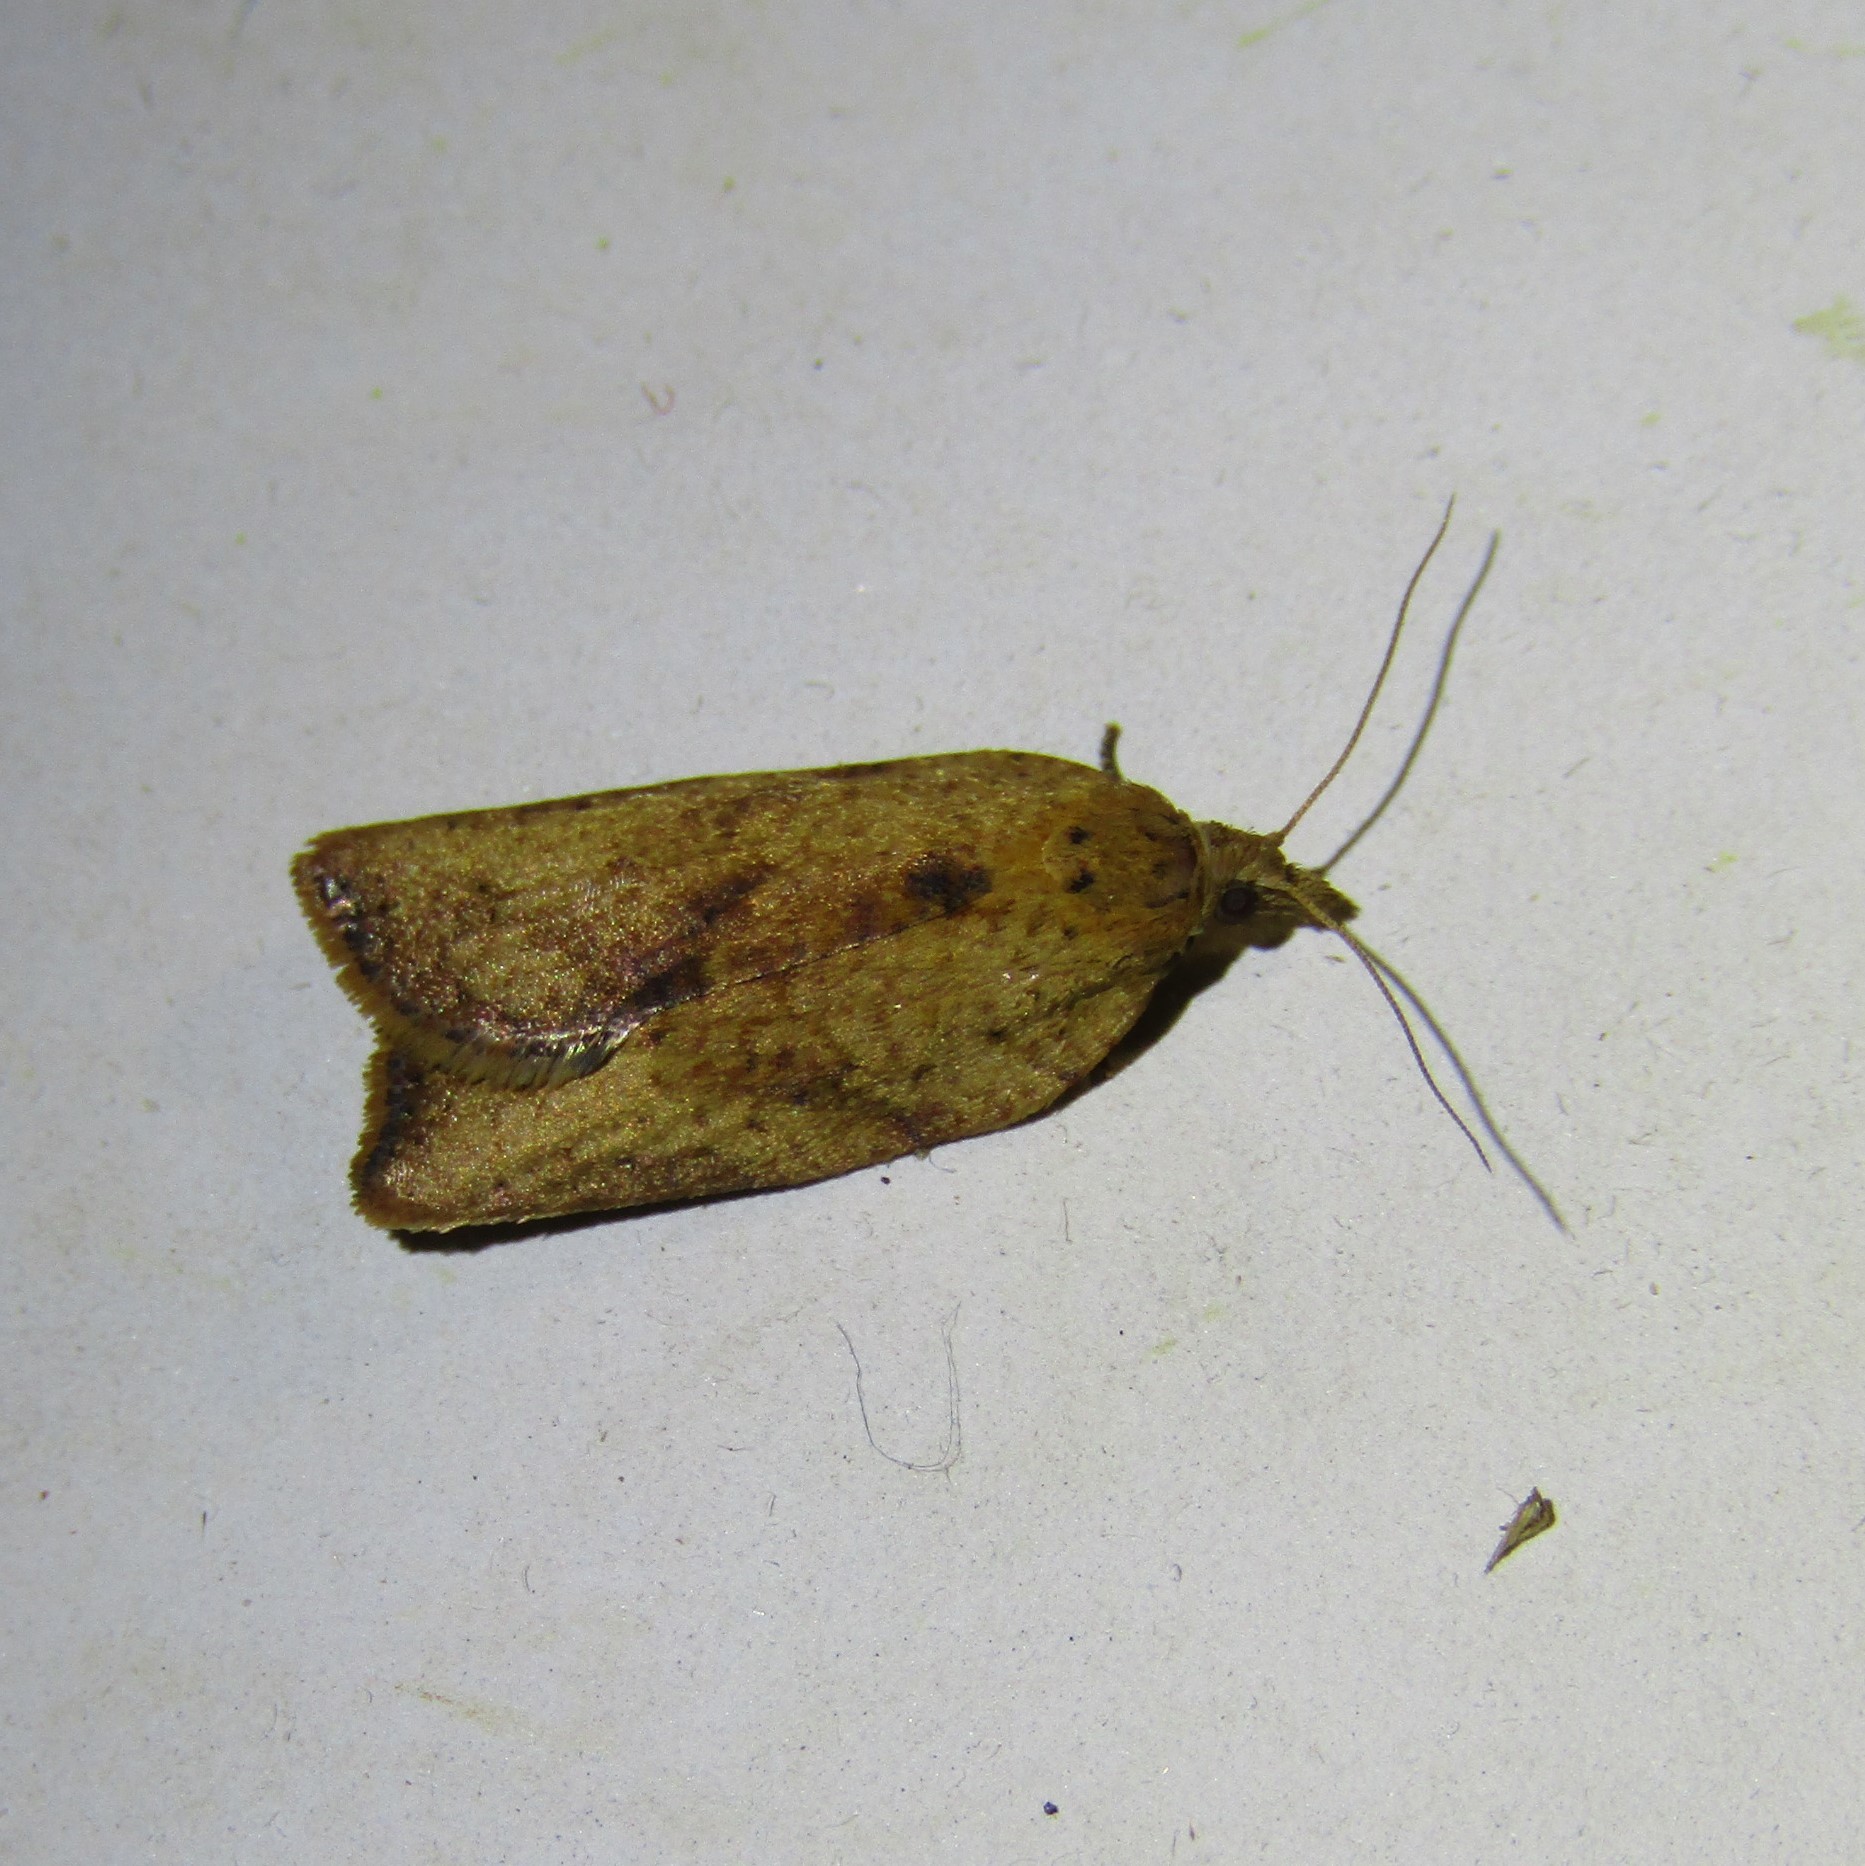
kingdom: Animalia
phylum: Arthropoda
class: Insecta
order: Lepidoptera
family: Tortricidae
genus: Epiphyas
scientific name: Epiphyas postvittana
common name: Light brown apple moth
